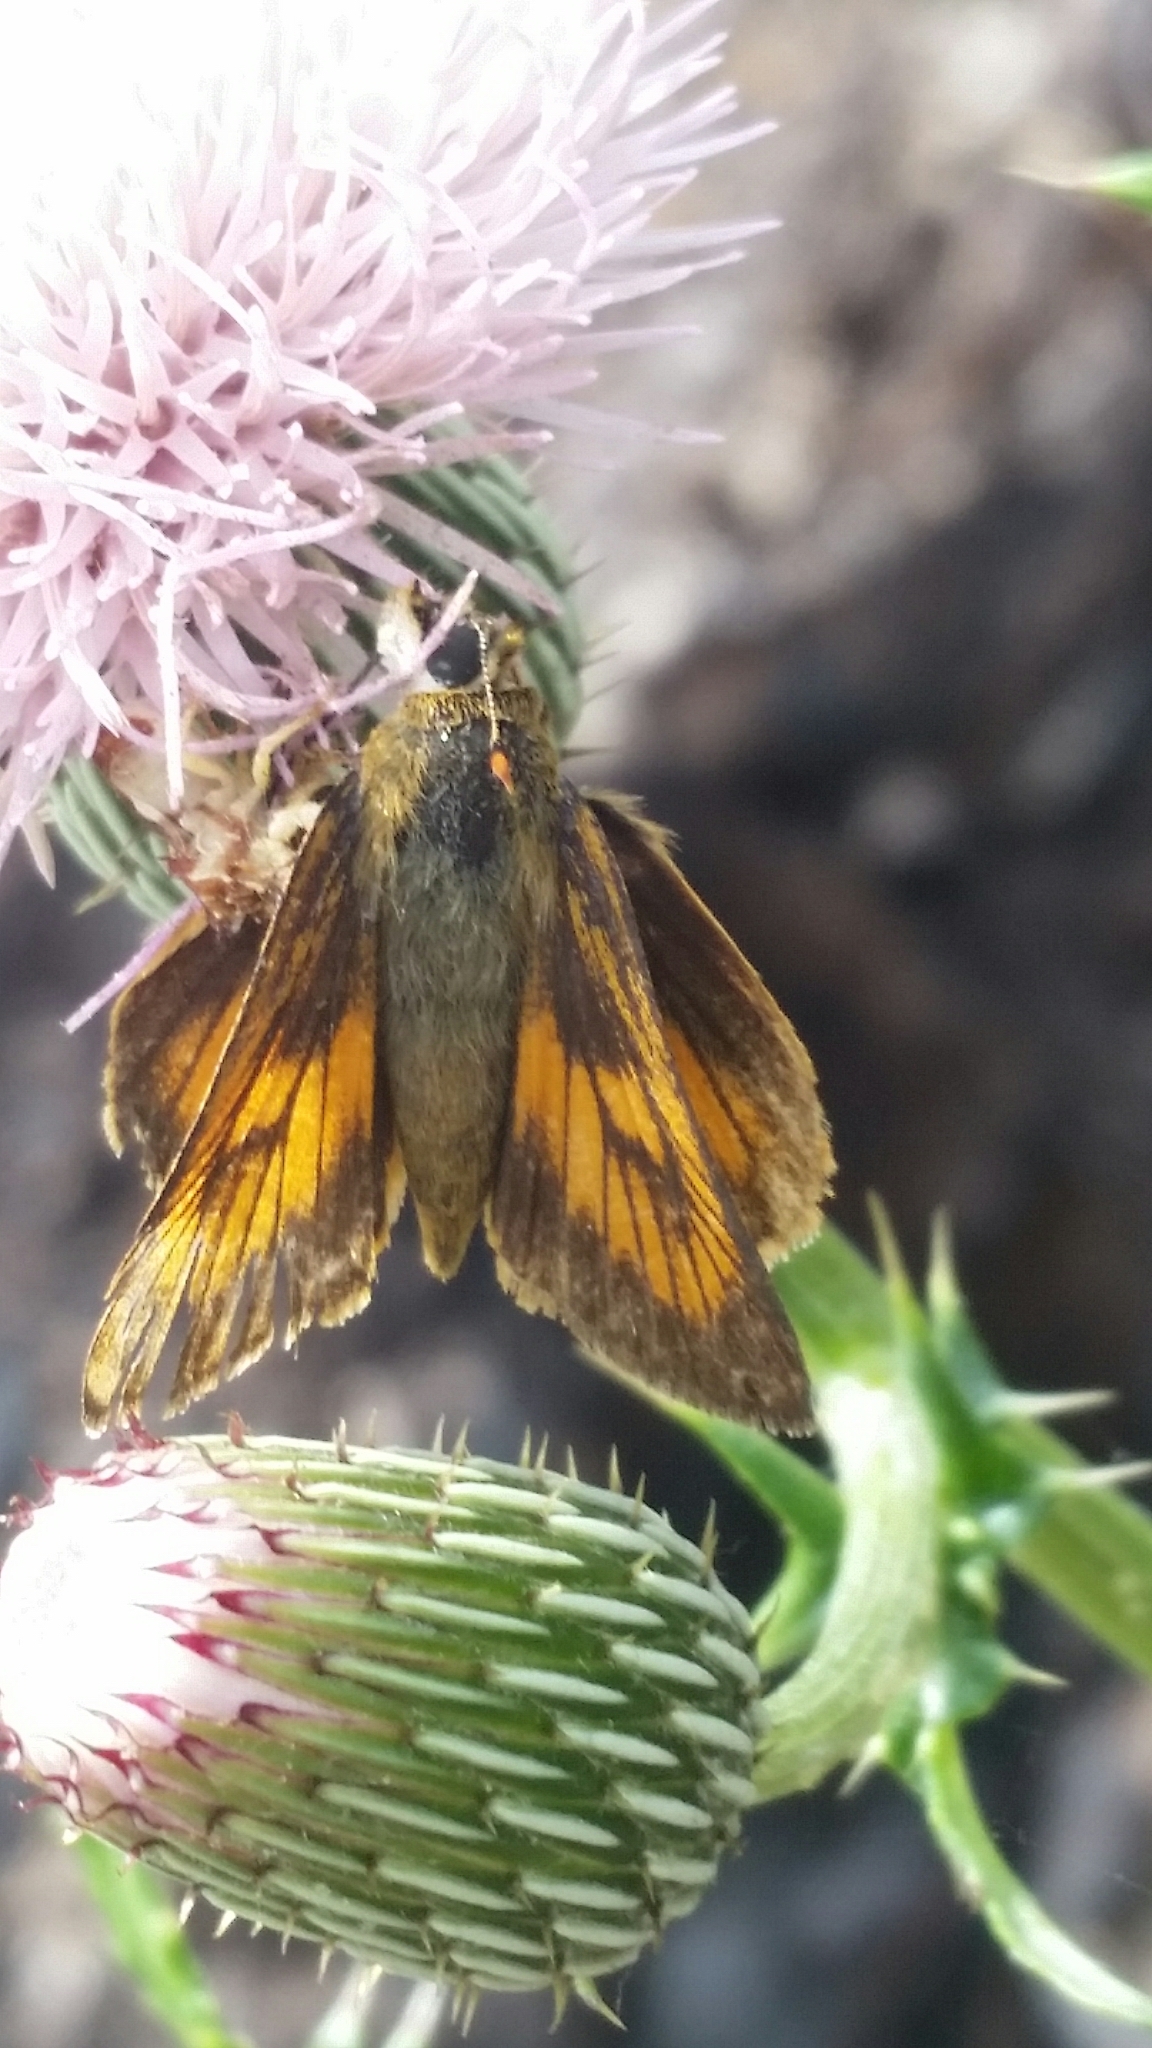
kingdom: Animalia
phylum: Arthropoda
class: Insecta
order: Lepidoptera
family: Hesperiidae
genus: Atrytone
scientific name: Atrytone delaware
